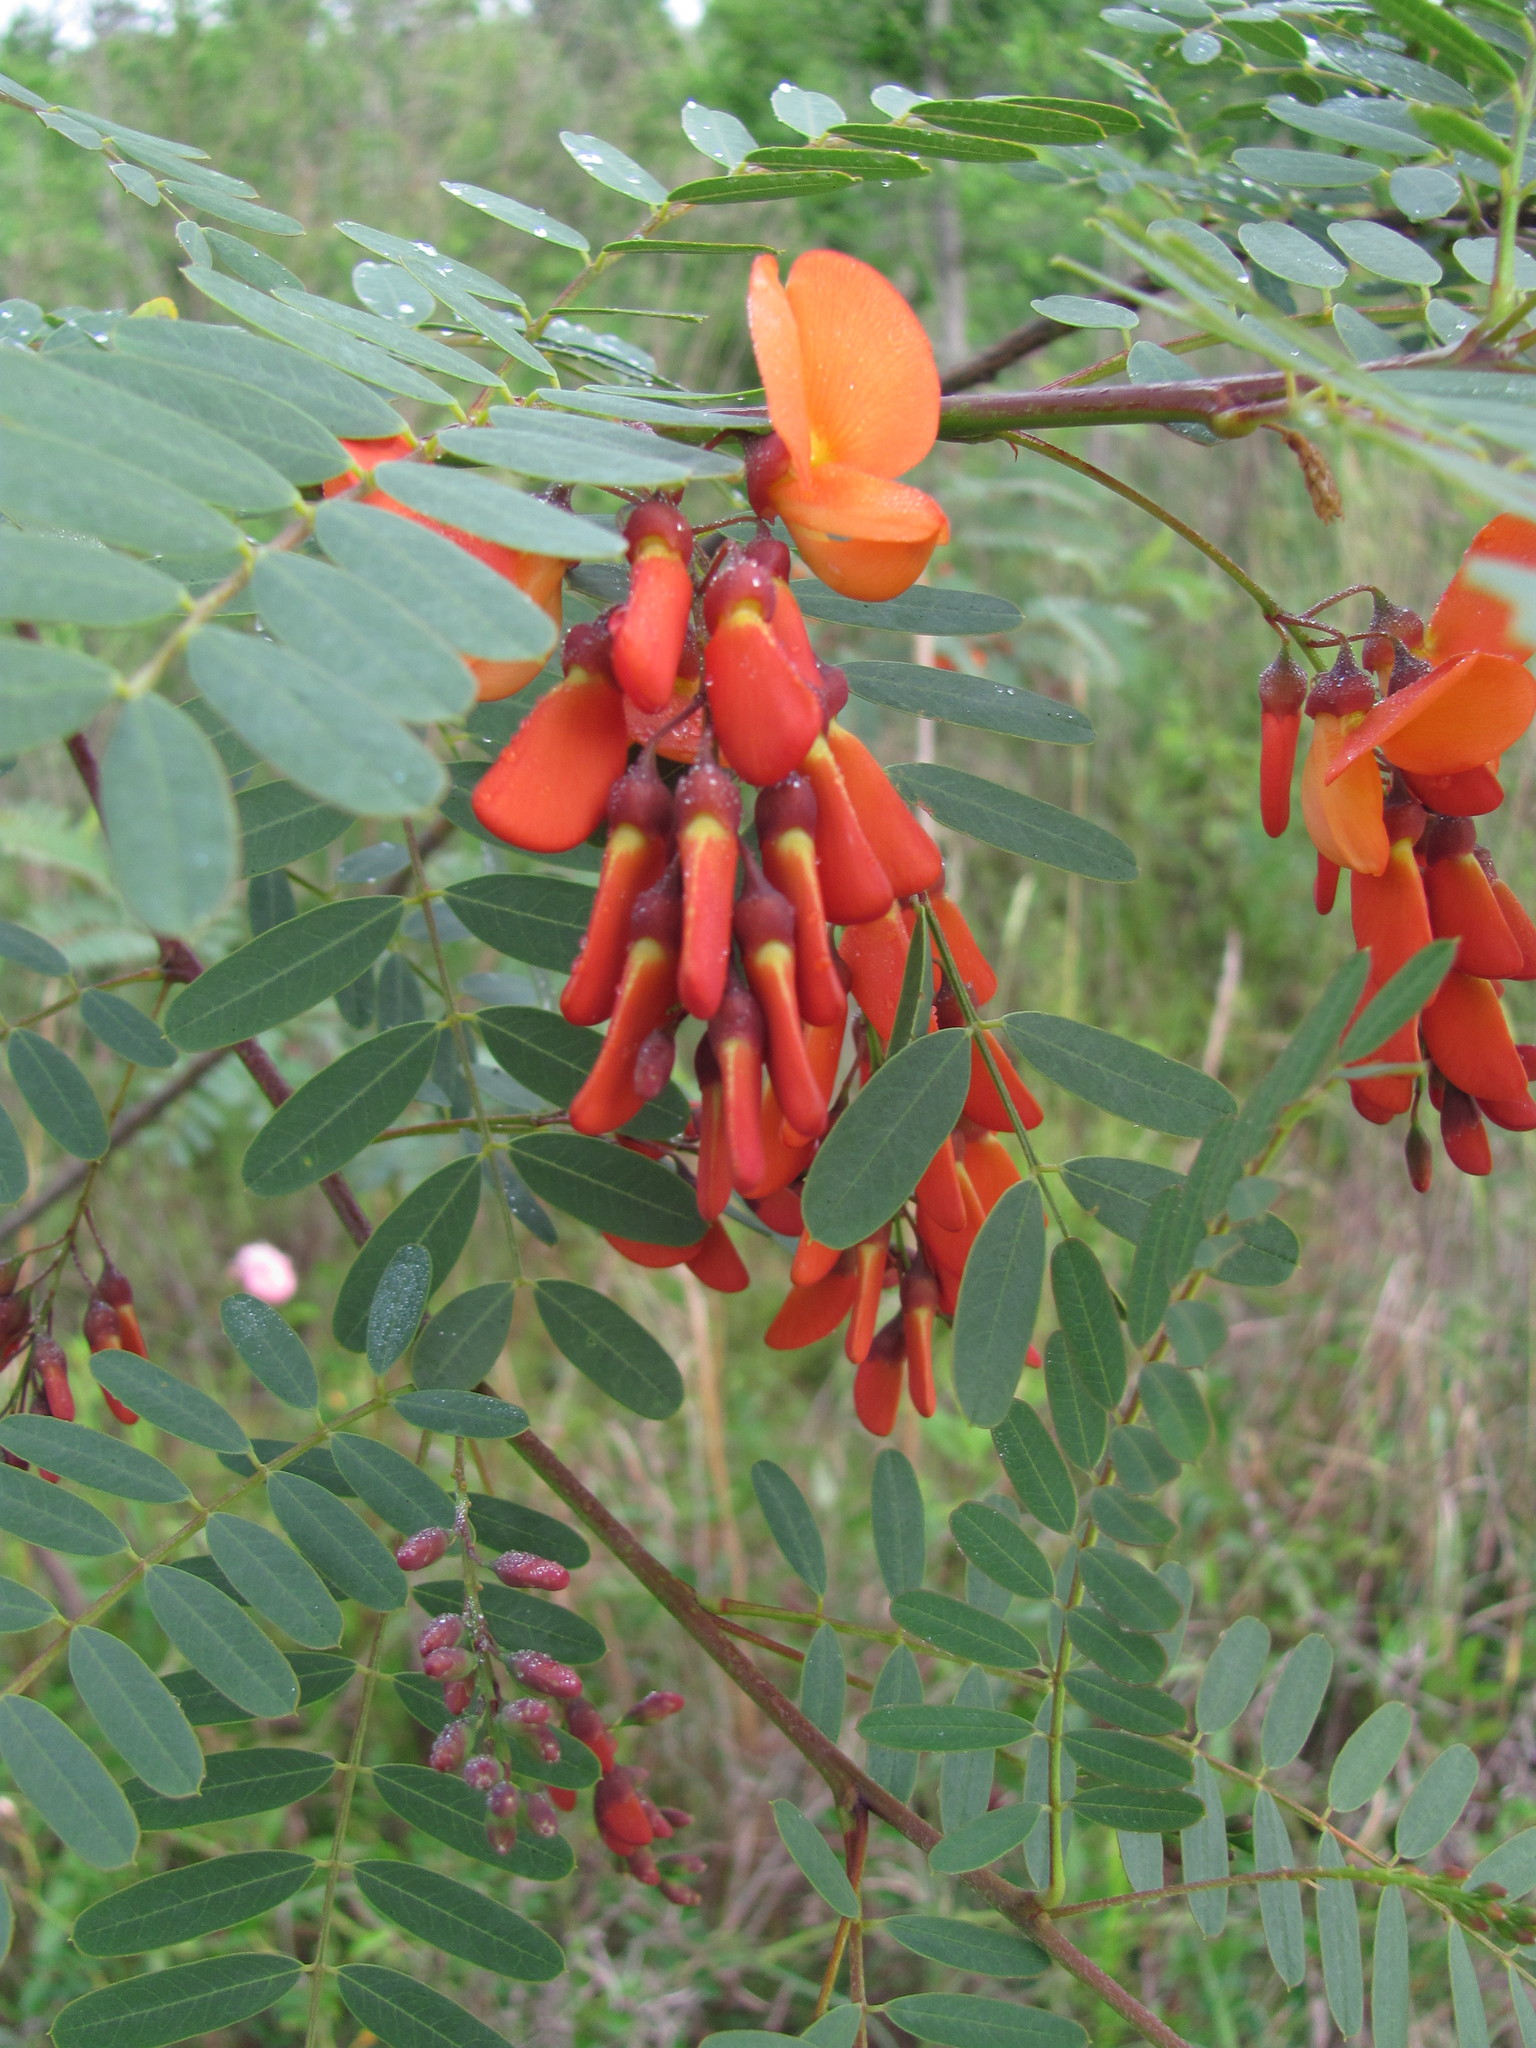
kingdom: Plantae
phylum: Tracheophyta
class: Magnoliopsida
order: Fabales
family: Fabaceae
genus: Sesbania
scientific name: Sesbania punicea
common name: Rattlebox
